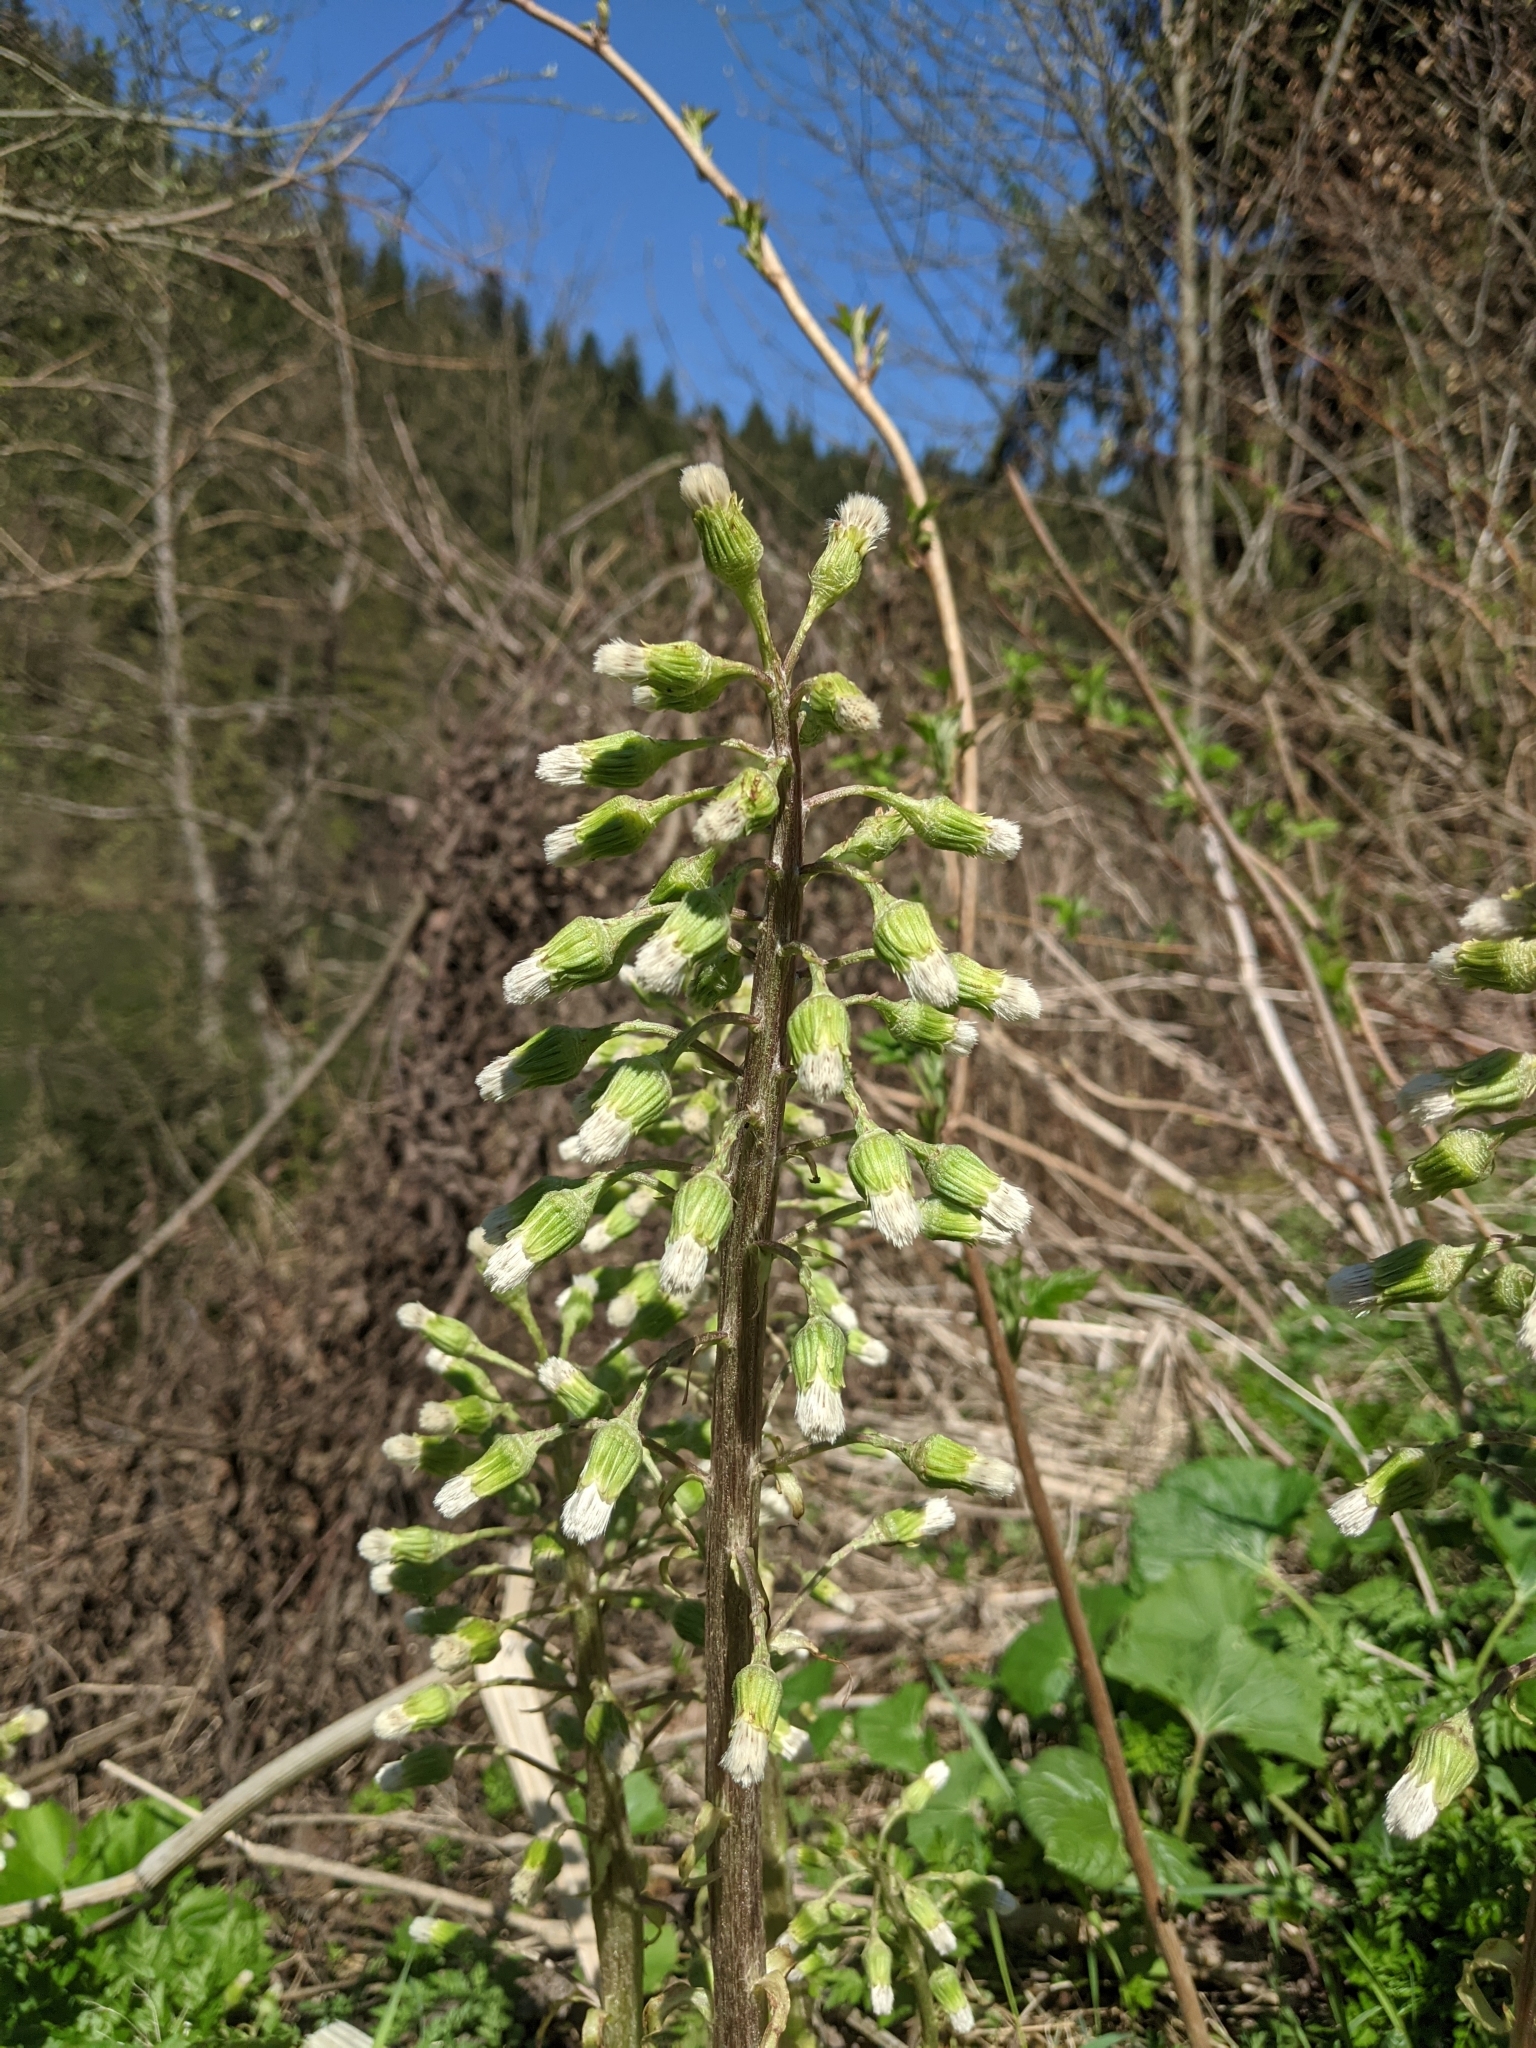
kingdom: Plantae
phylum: Tracheophyta
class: Magnoliopsida
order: Asterales
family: Asteraceae
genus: Petasites
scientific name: Petasites albus
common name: White butterbur
